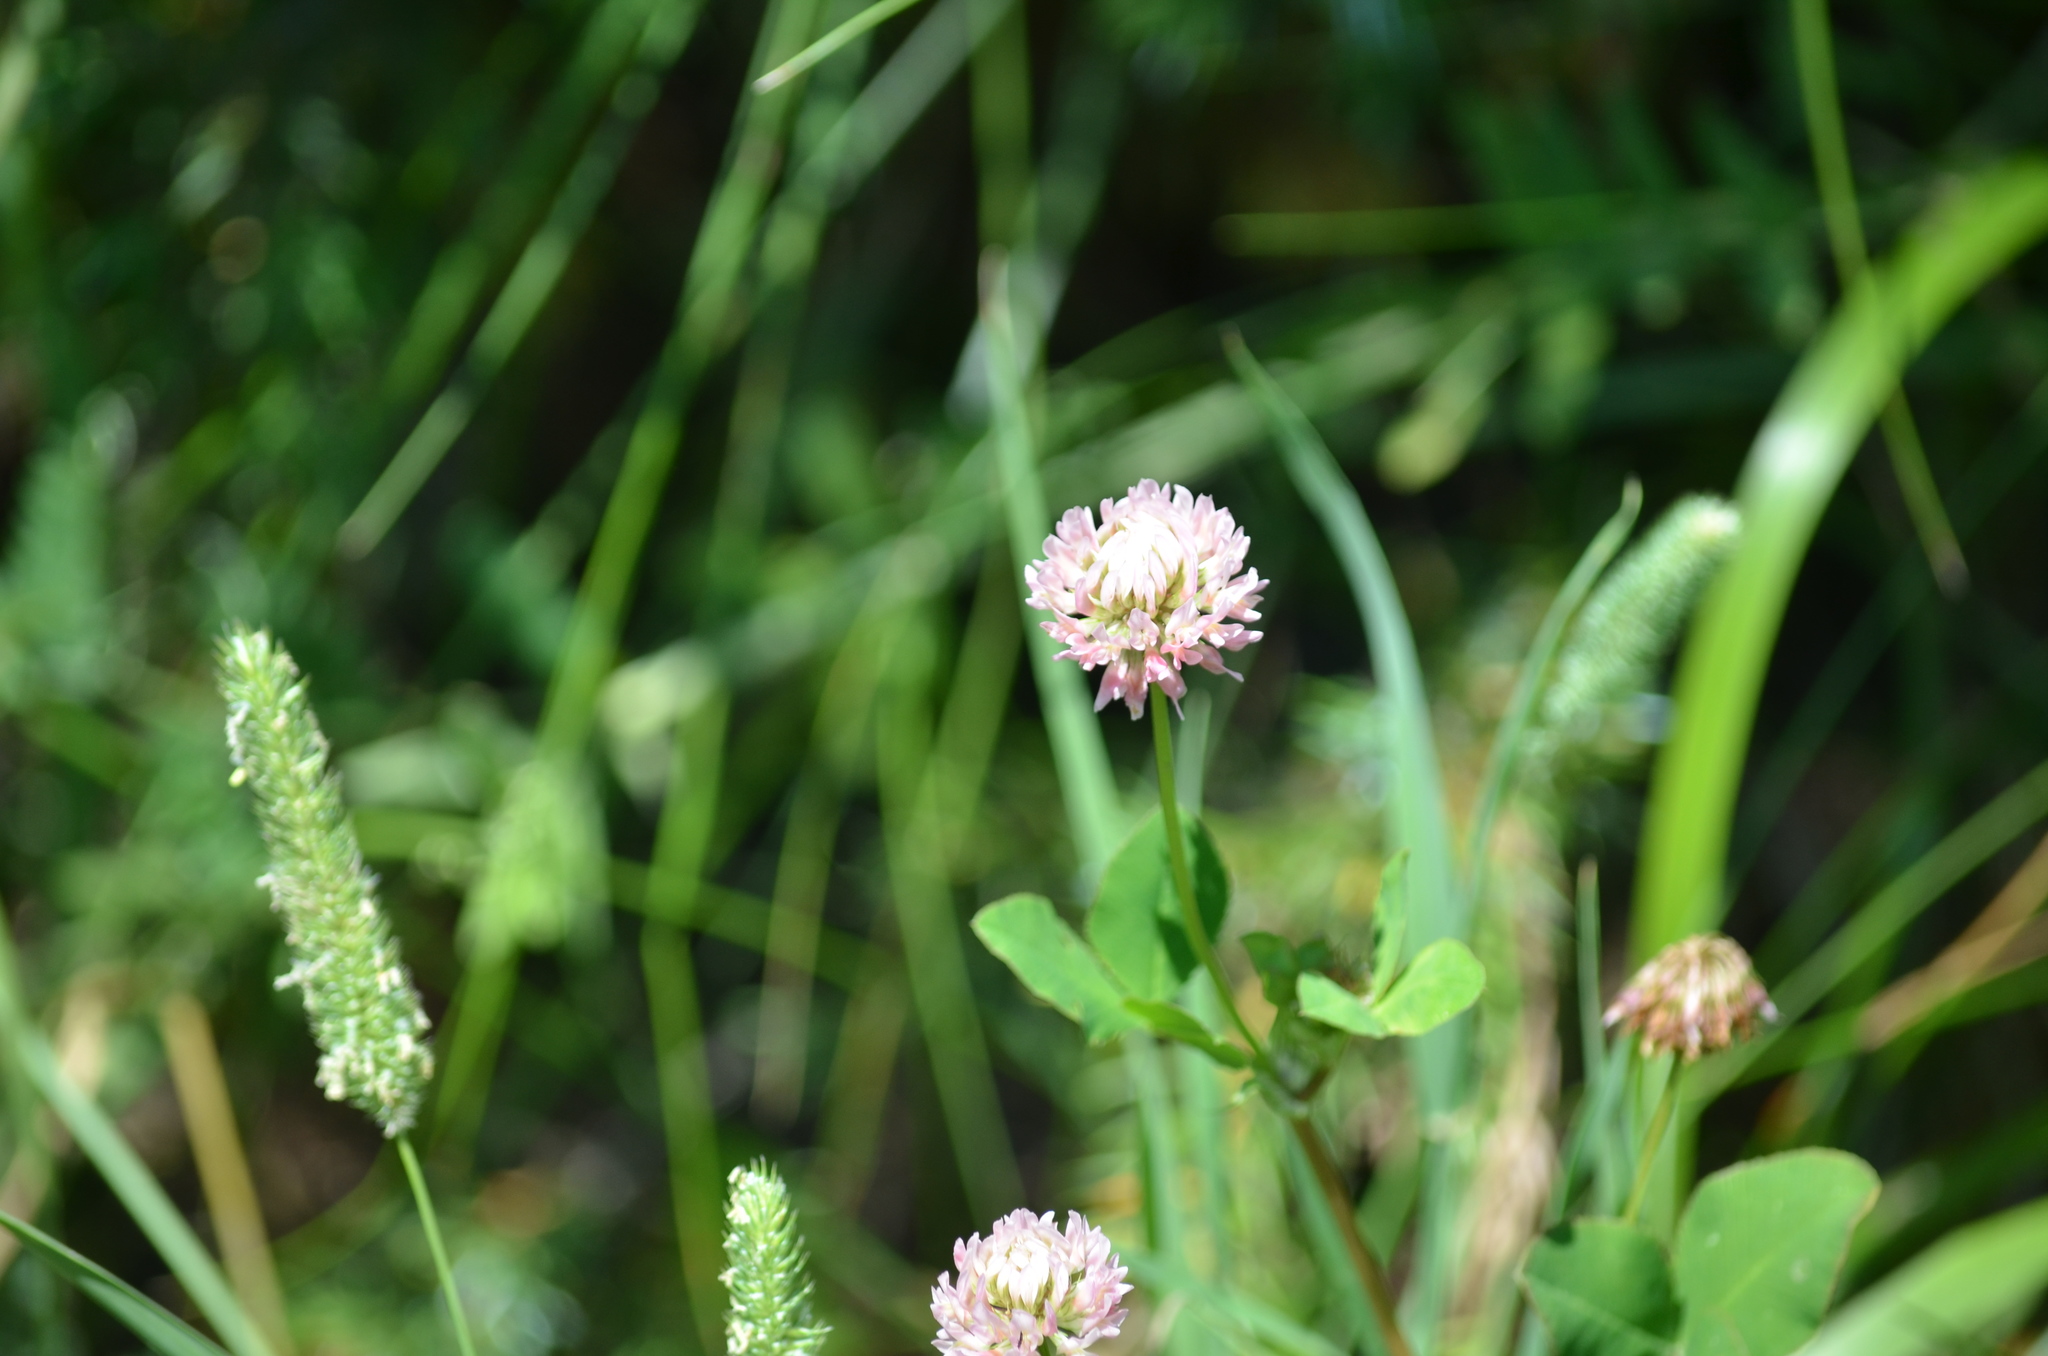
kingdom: Plantae
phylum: Tracheophyta
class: Magnoliopsida
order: Fabales
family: Fabaceae
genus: Trifolium
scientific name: Trifolium hybridum
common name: Alsike clover
